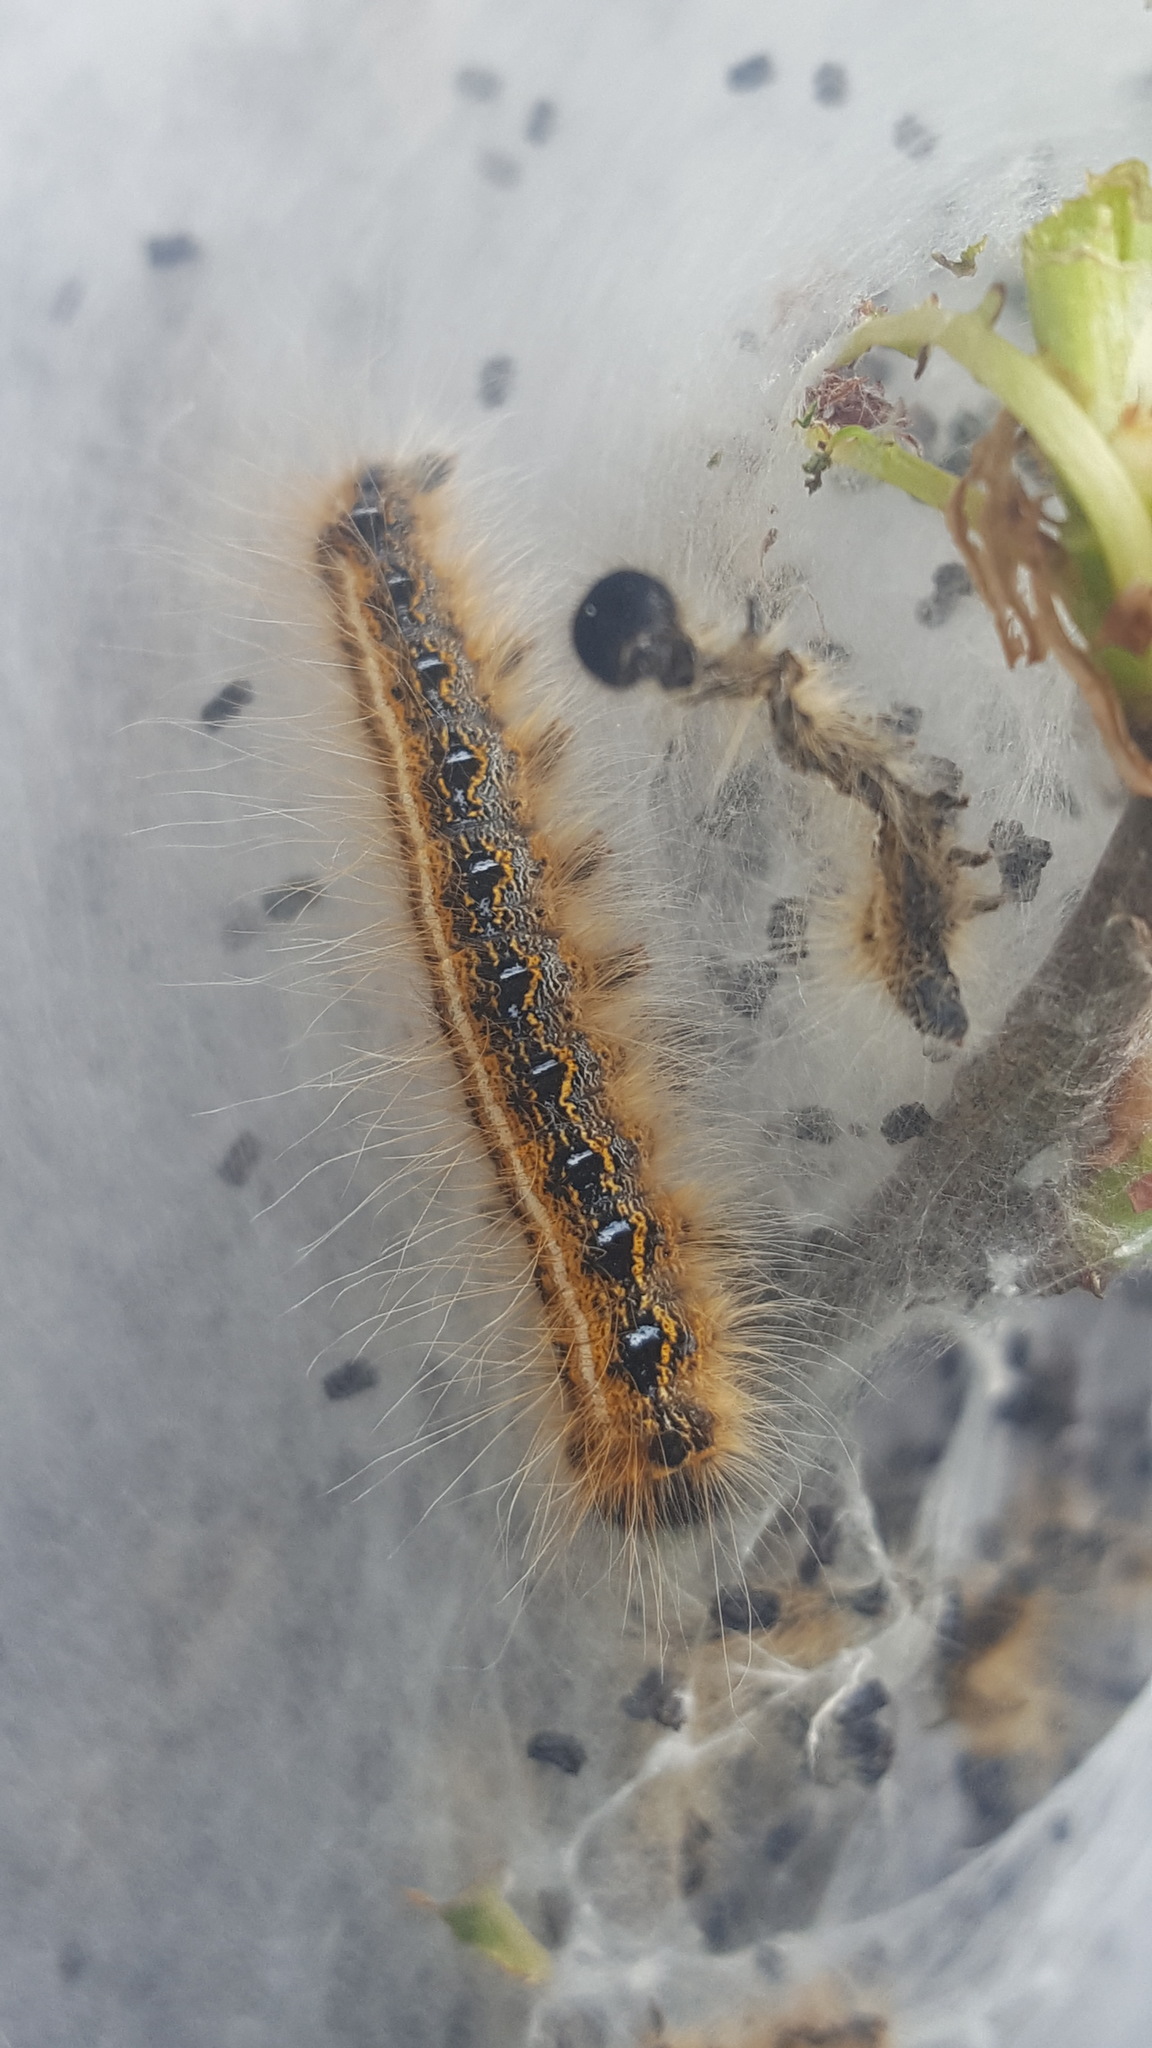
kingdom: Animalia
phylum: Arthropoda
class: Insecta
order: Lepidoptera
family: Lasiocampidae
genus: Malacosoma
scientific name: Malacosoma americana
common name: Eastern tent caterpillar moth
